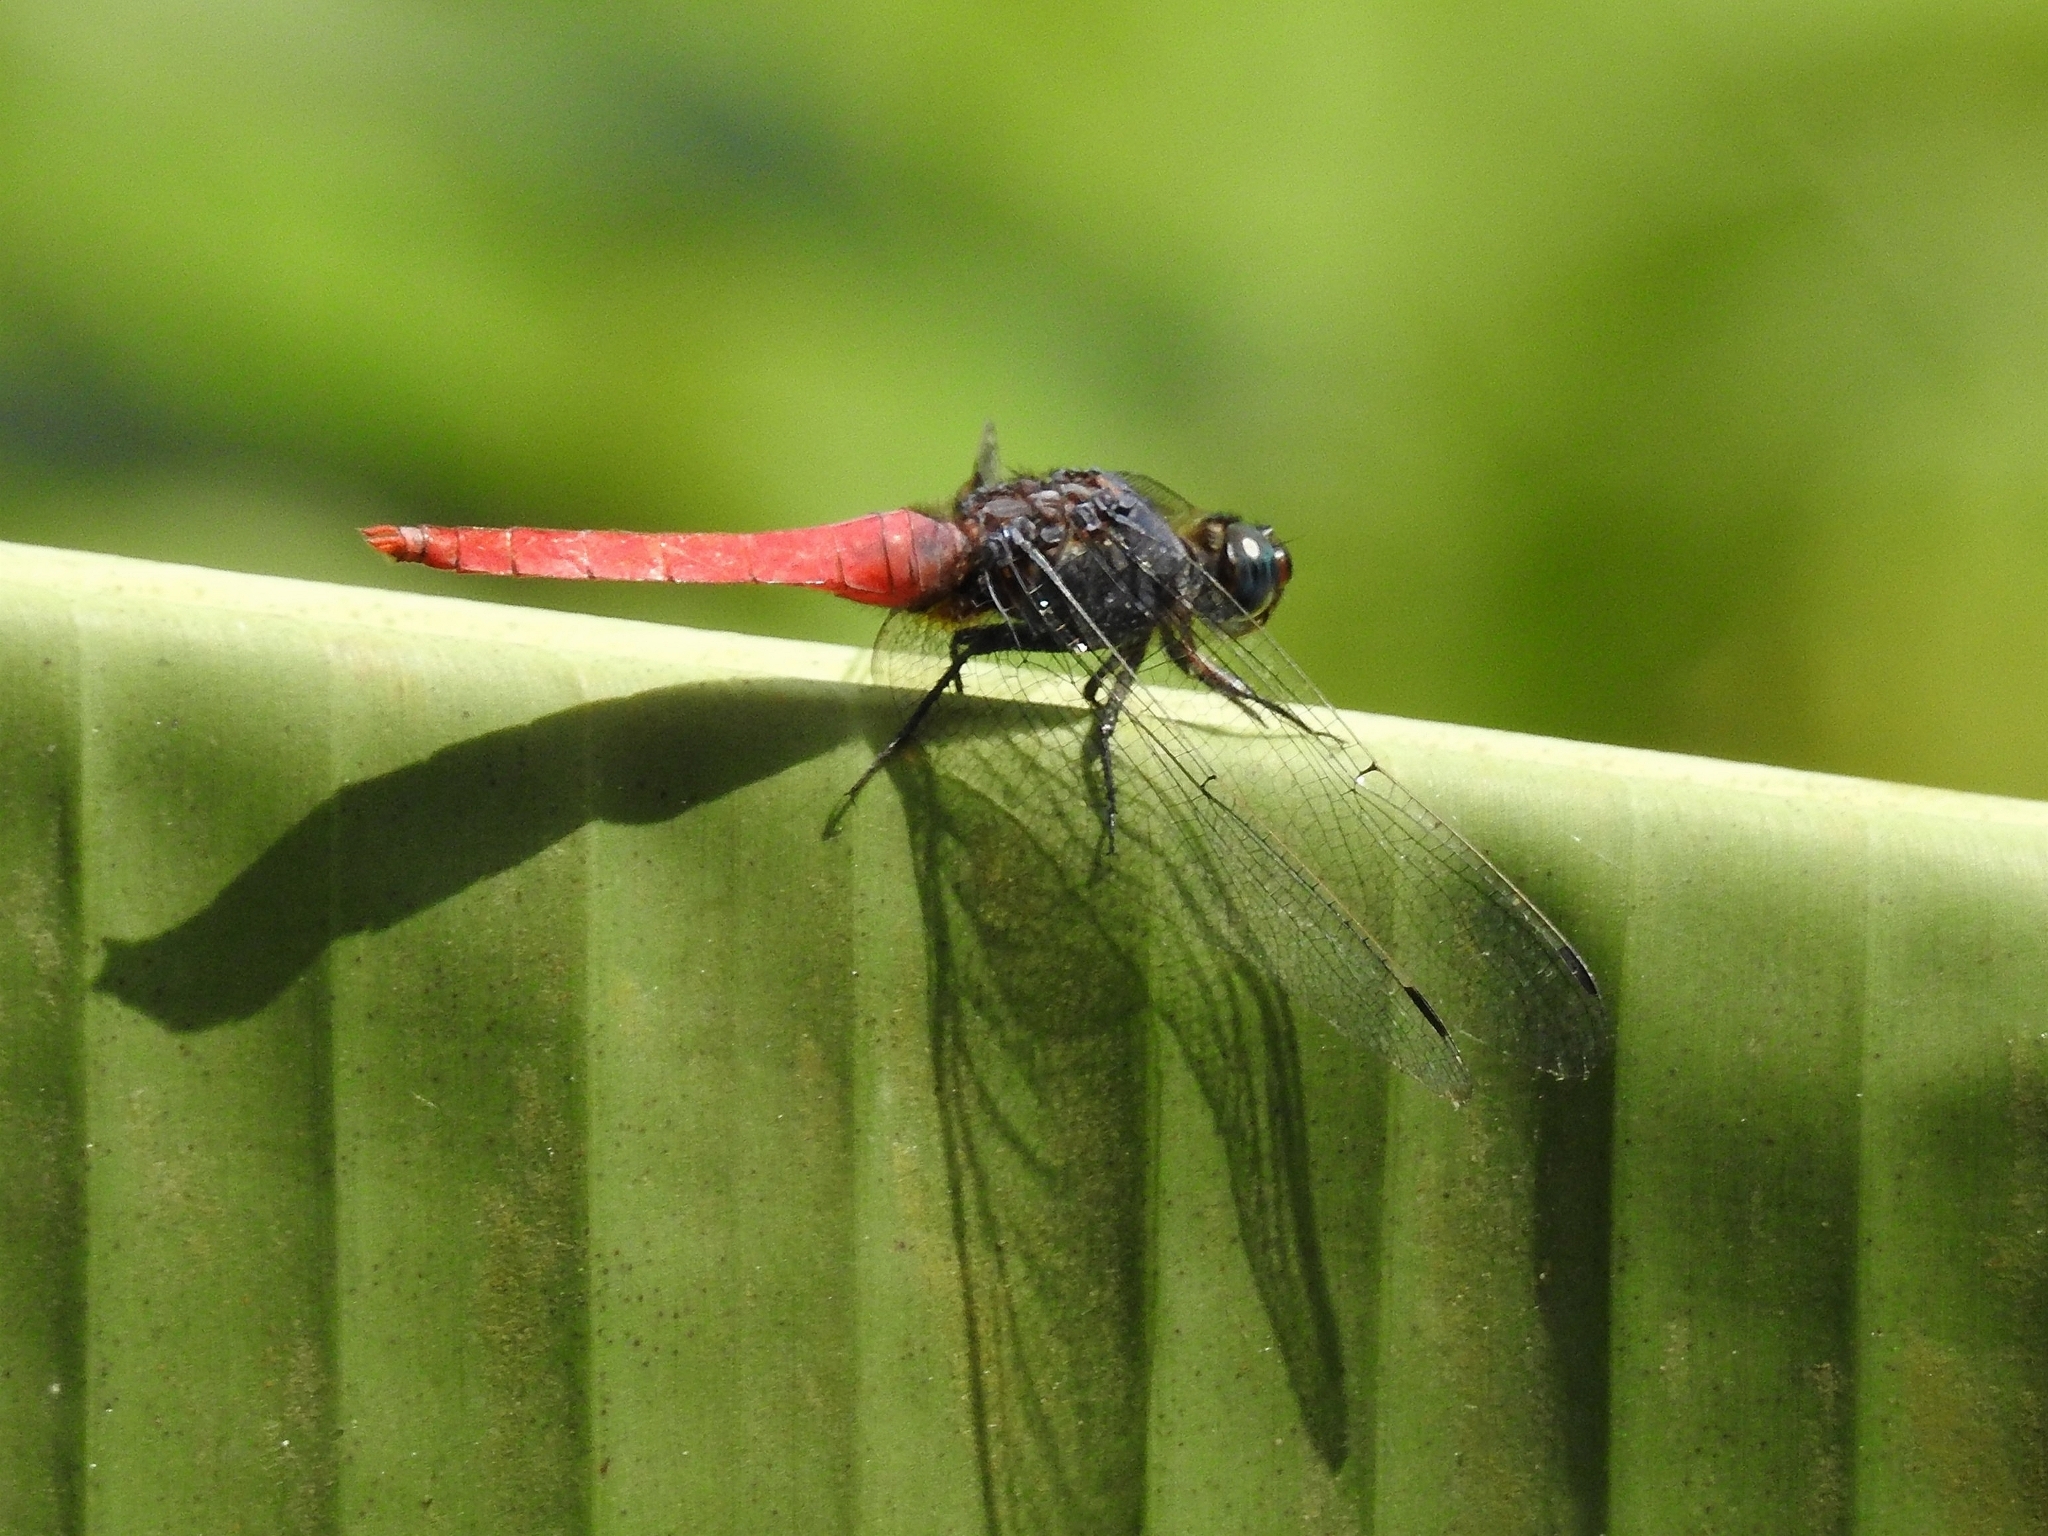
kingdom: Animalia
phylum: Arthropoda
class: Insecta
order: Odonata
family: Libellulidae
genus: Orthetrum
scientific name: Orthetrum pruinosum
